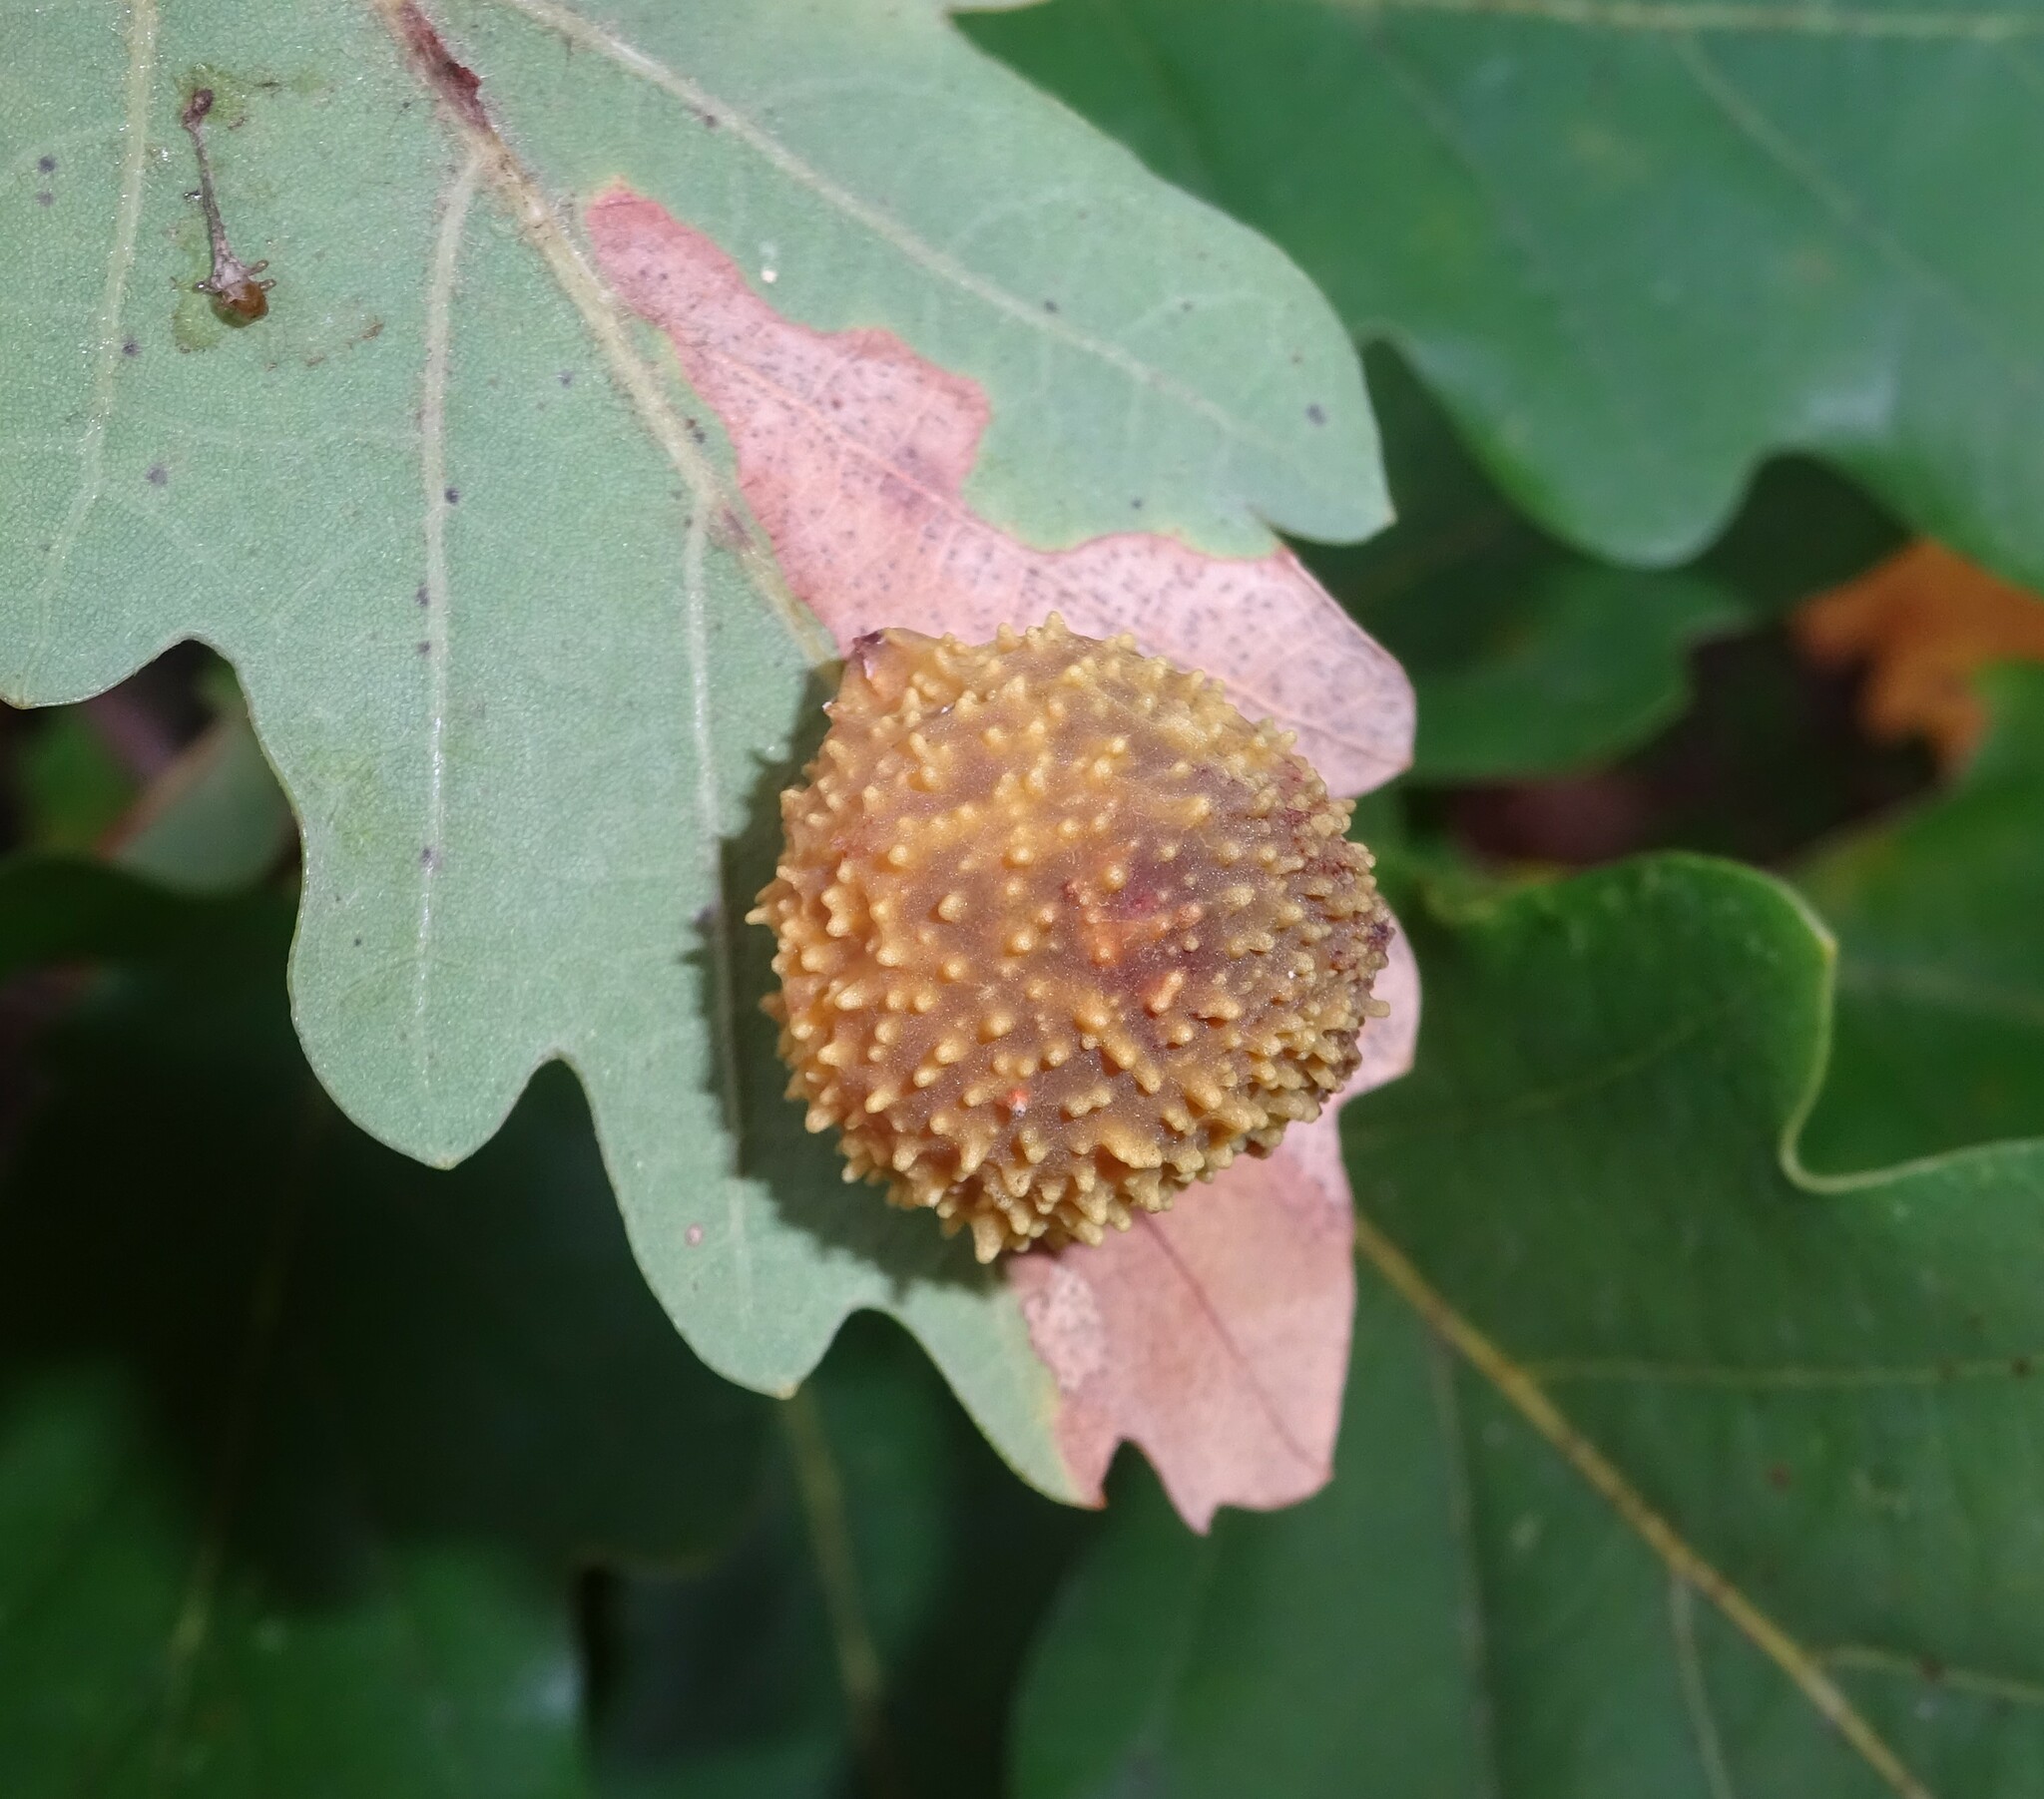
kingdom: Animalia
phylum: Arthropoda
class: Insecta
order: Hymenoptera
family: Cynipidae
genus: Cynips
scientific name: Cynips quercusfolii
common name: Cherry gall
